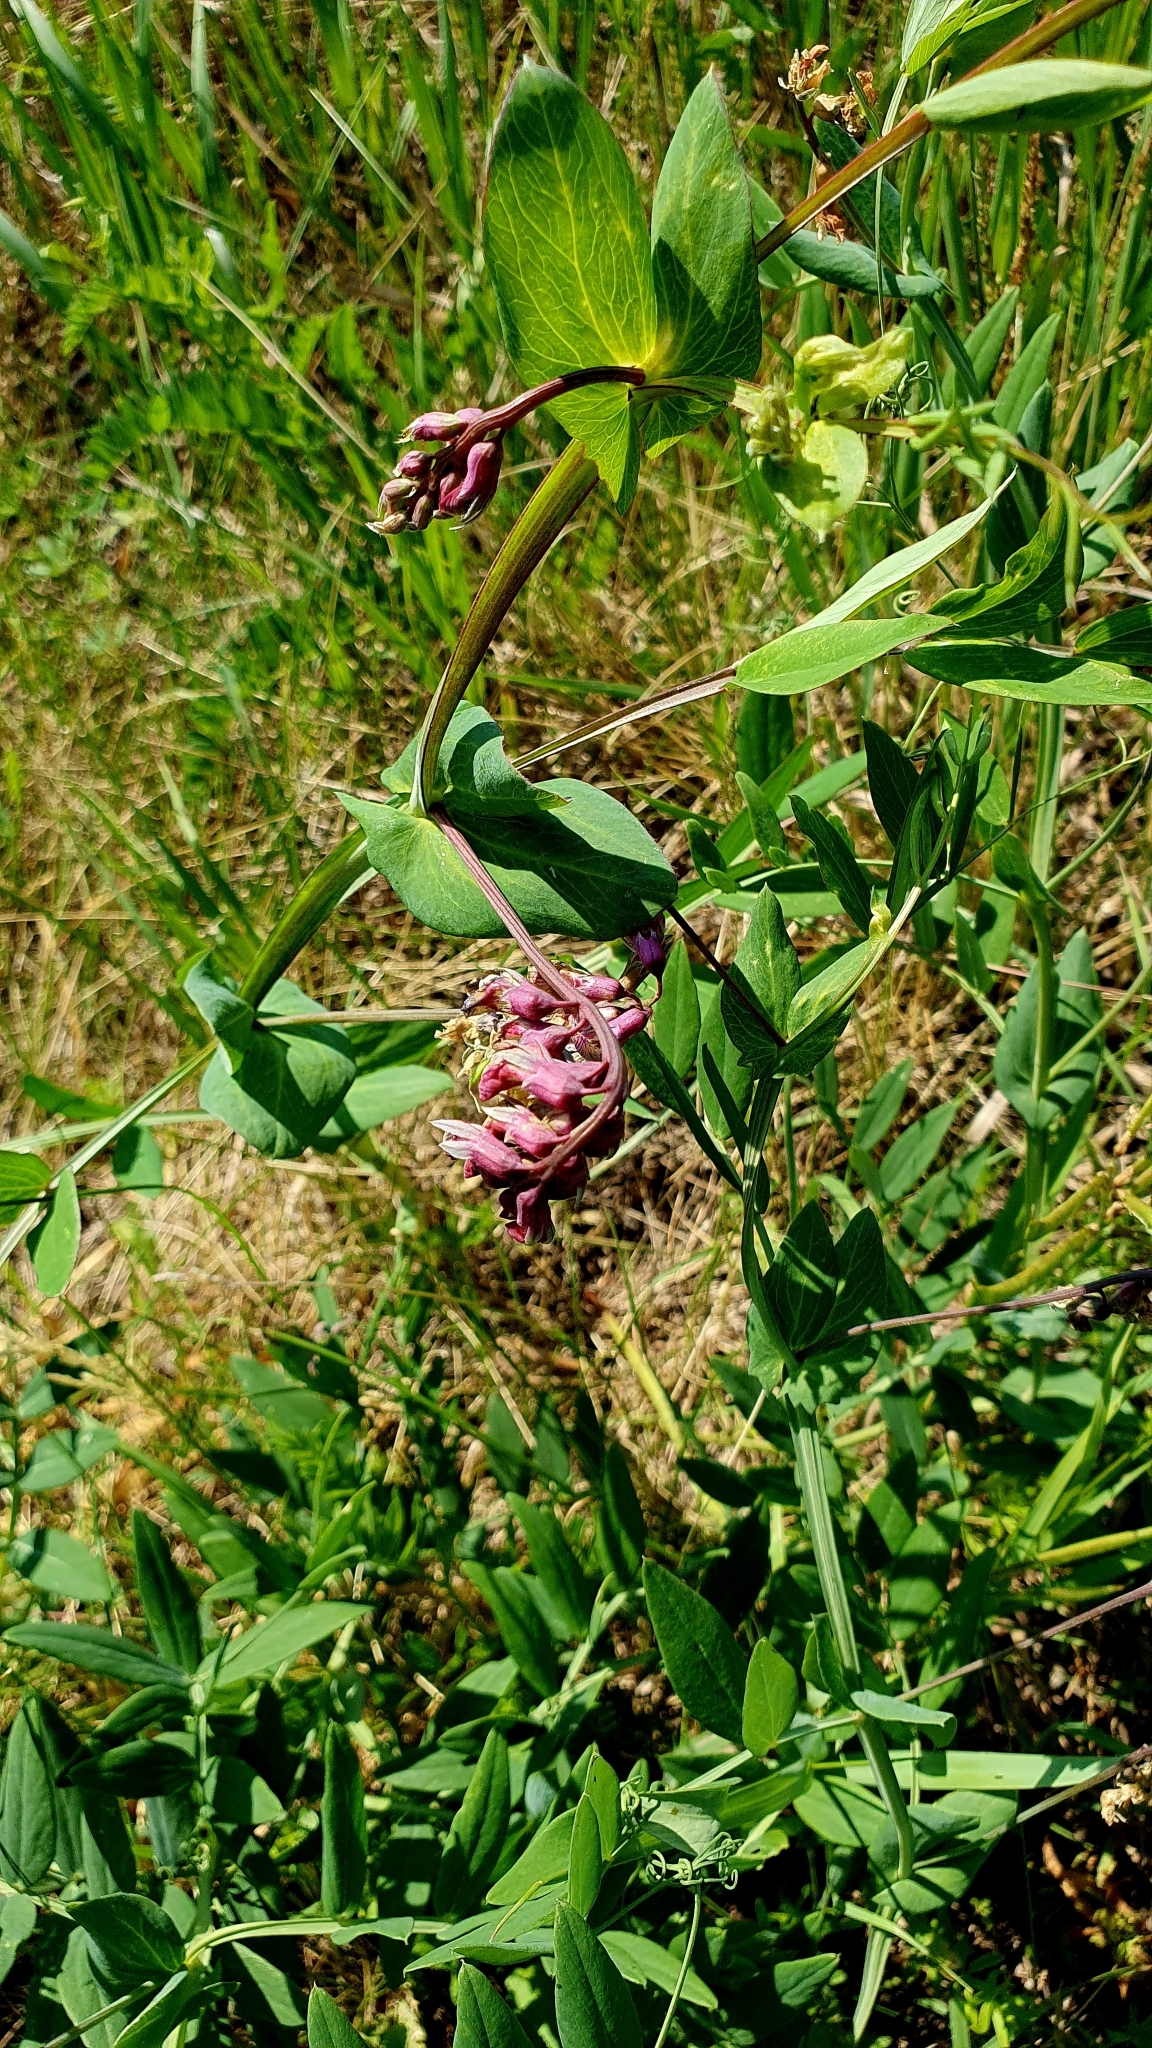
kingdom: Plantae
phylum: Tracheophyta
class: Magnoliopsida
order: Fabales
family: Fabaceae
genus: Lathyrus
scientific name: Lathyrus pisiformis
